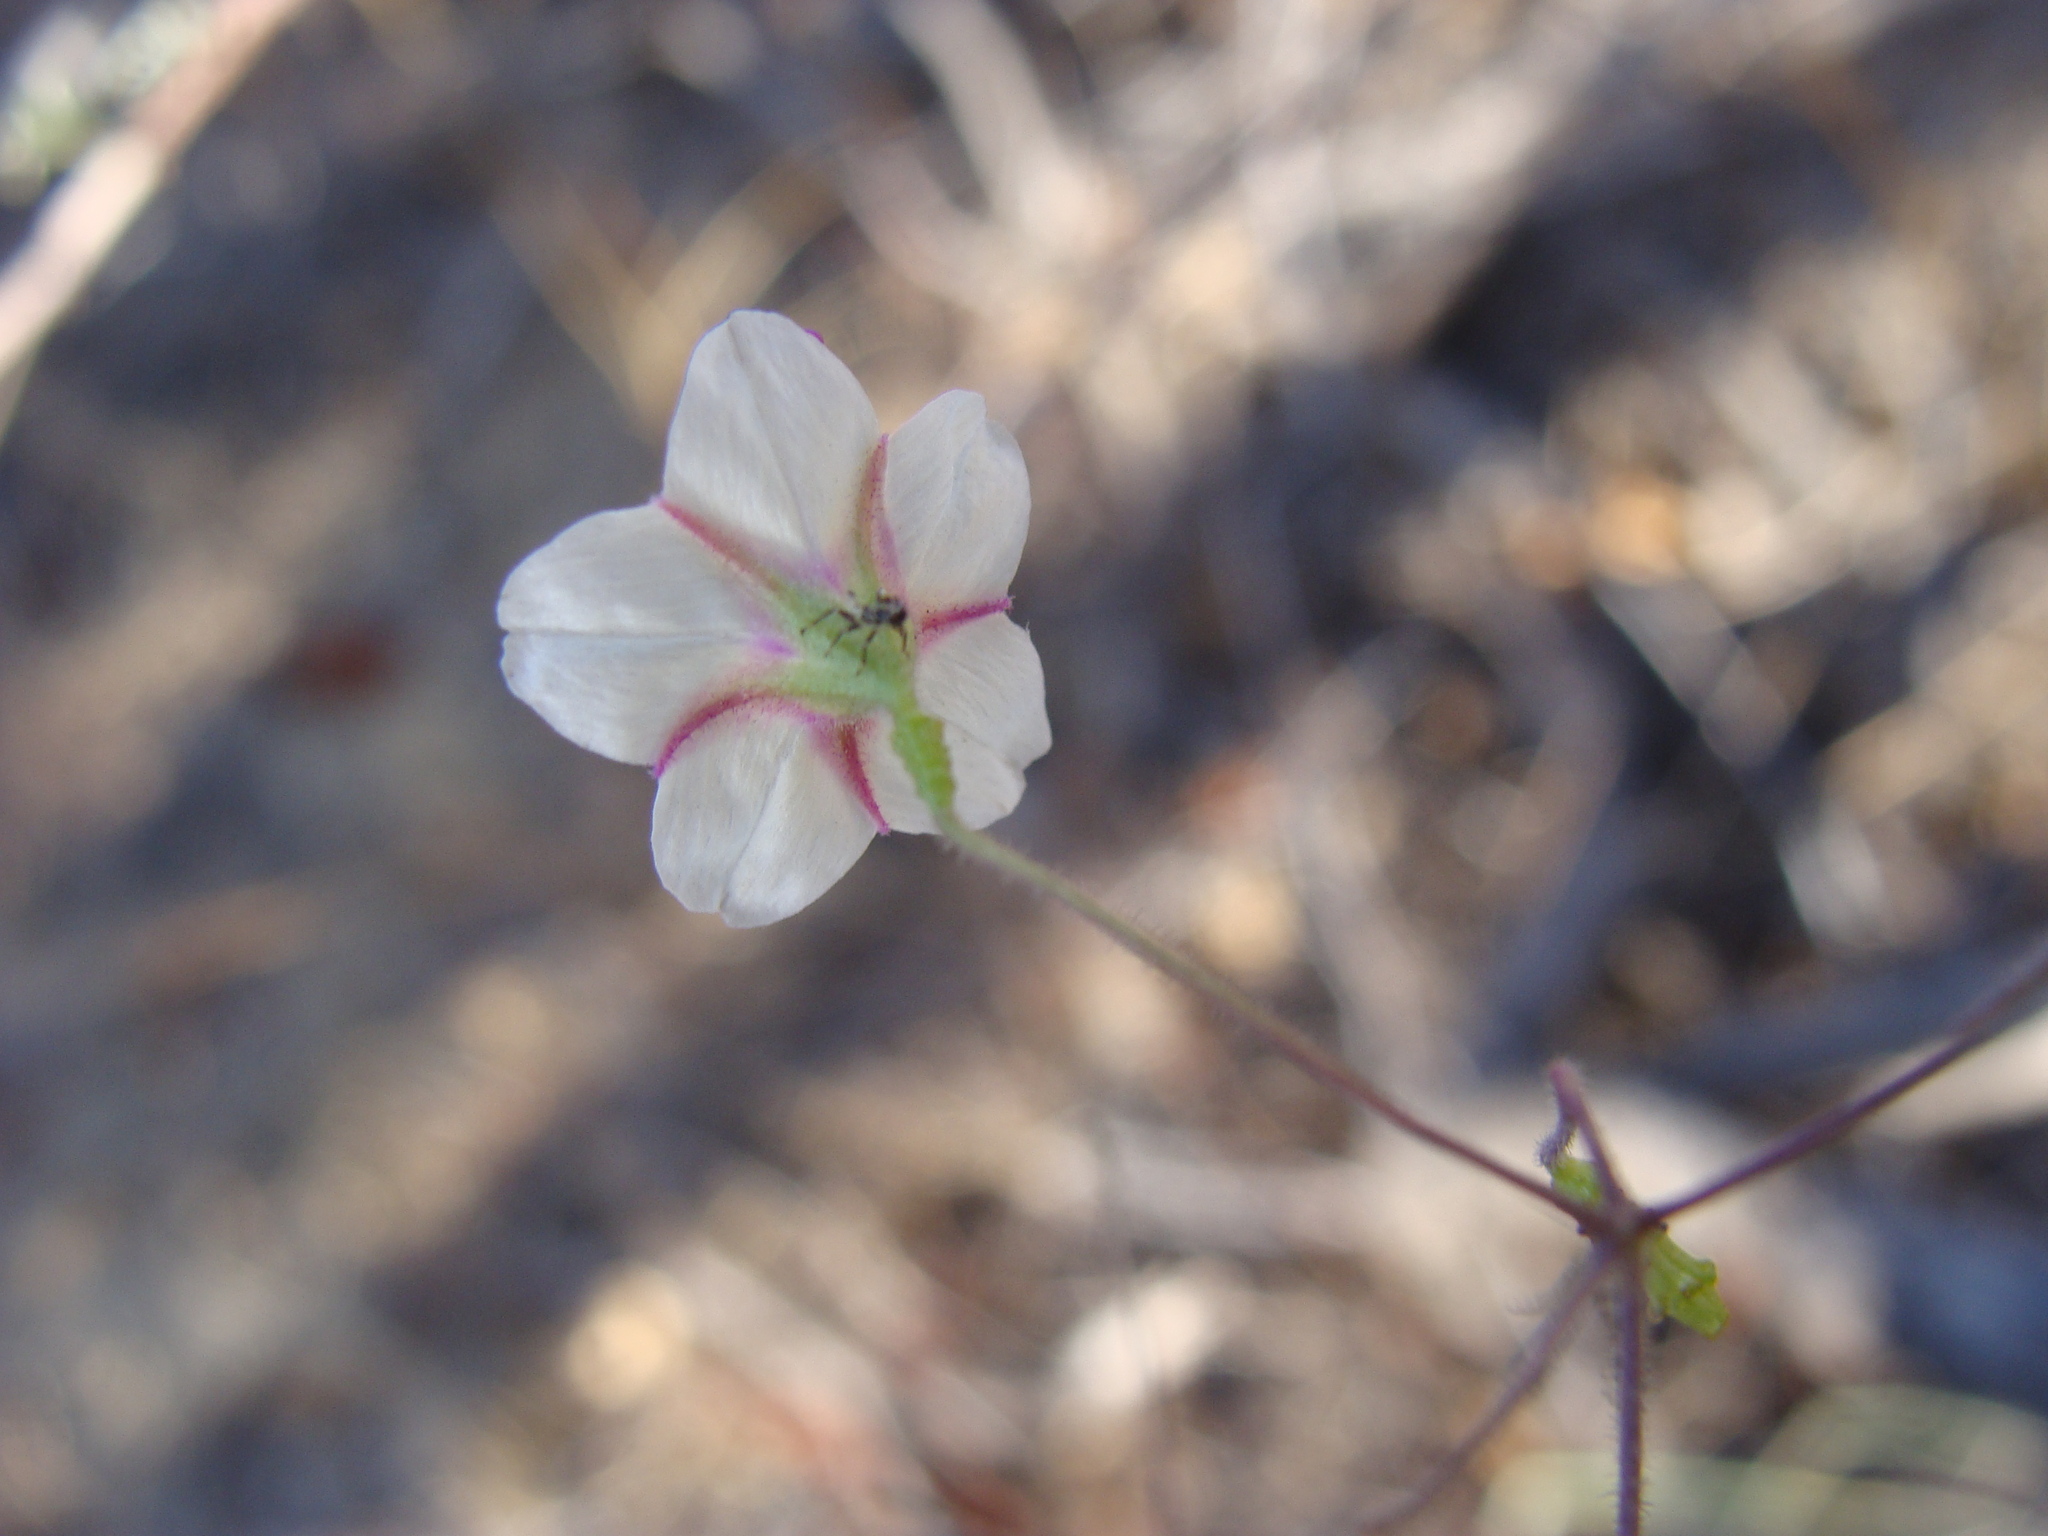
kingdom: Plantae
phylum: Tracheophyta
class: Magnoliopsida
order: Caryophyllales
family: Nyctaginaceae
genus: Commicarpus
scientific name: Commicarpus brandegeei
